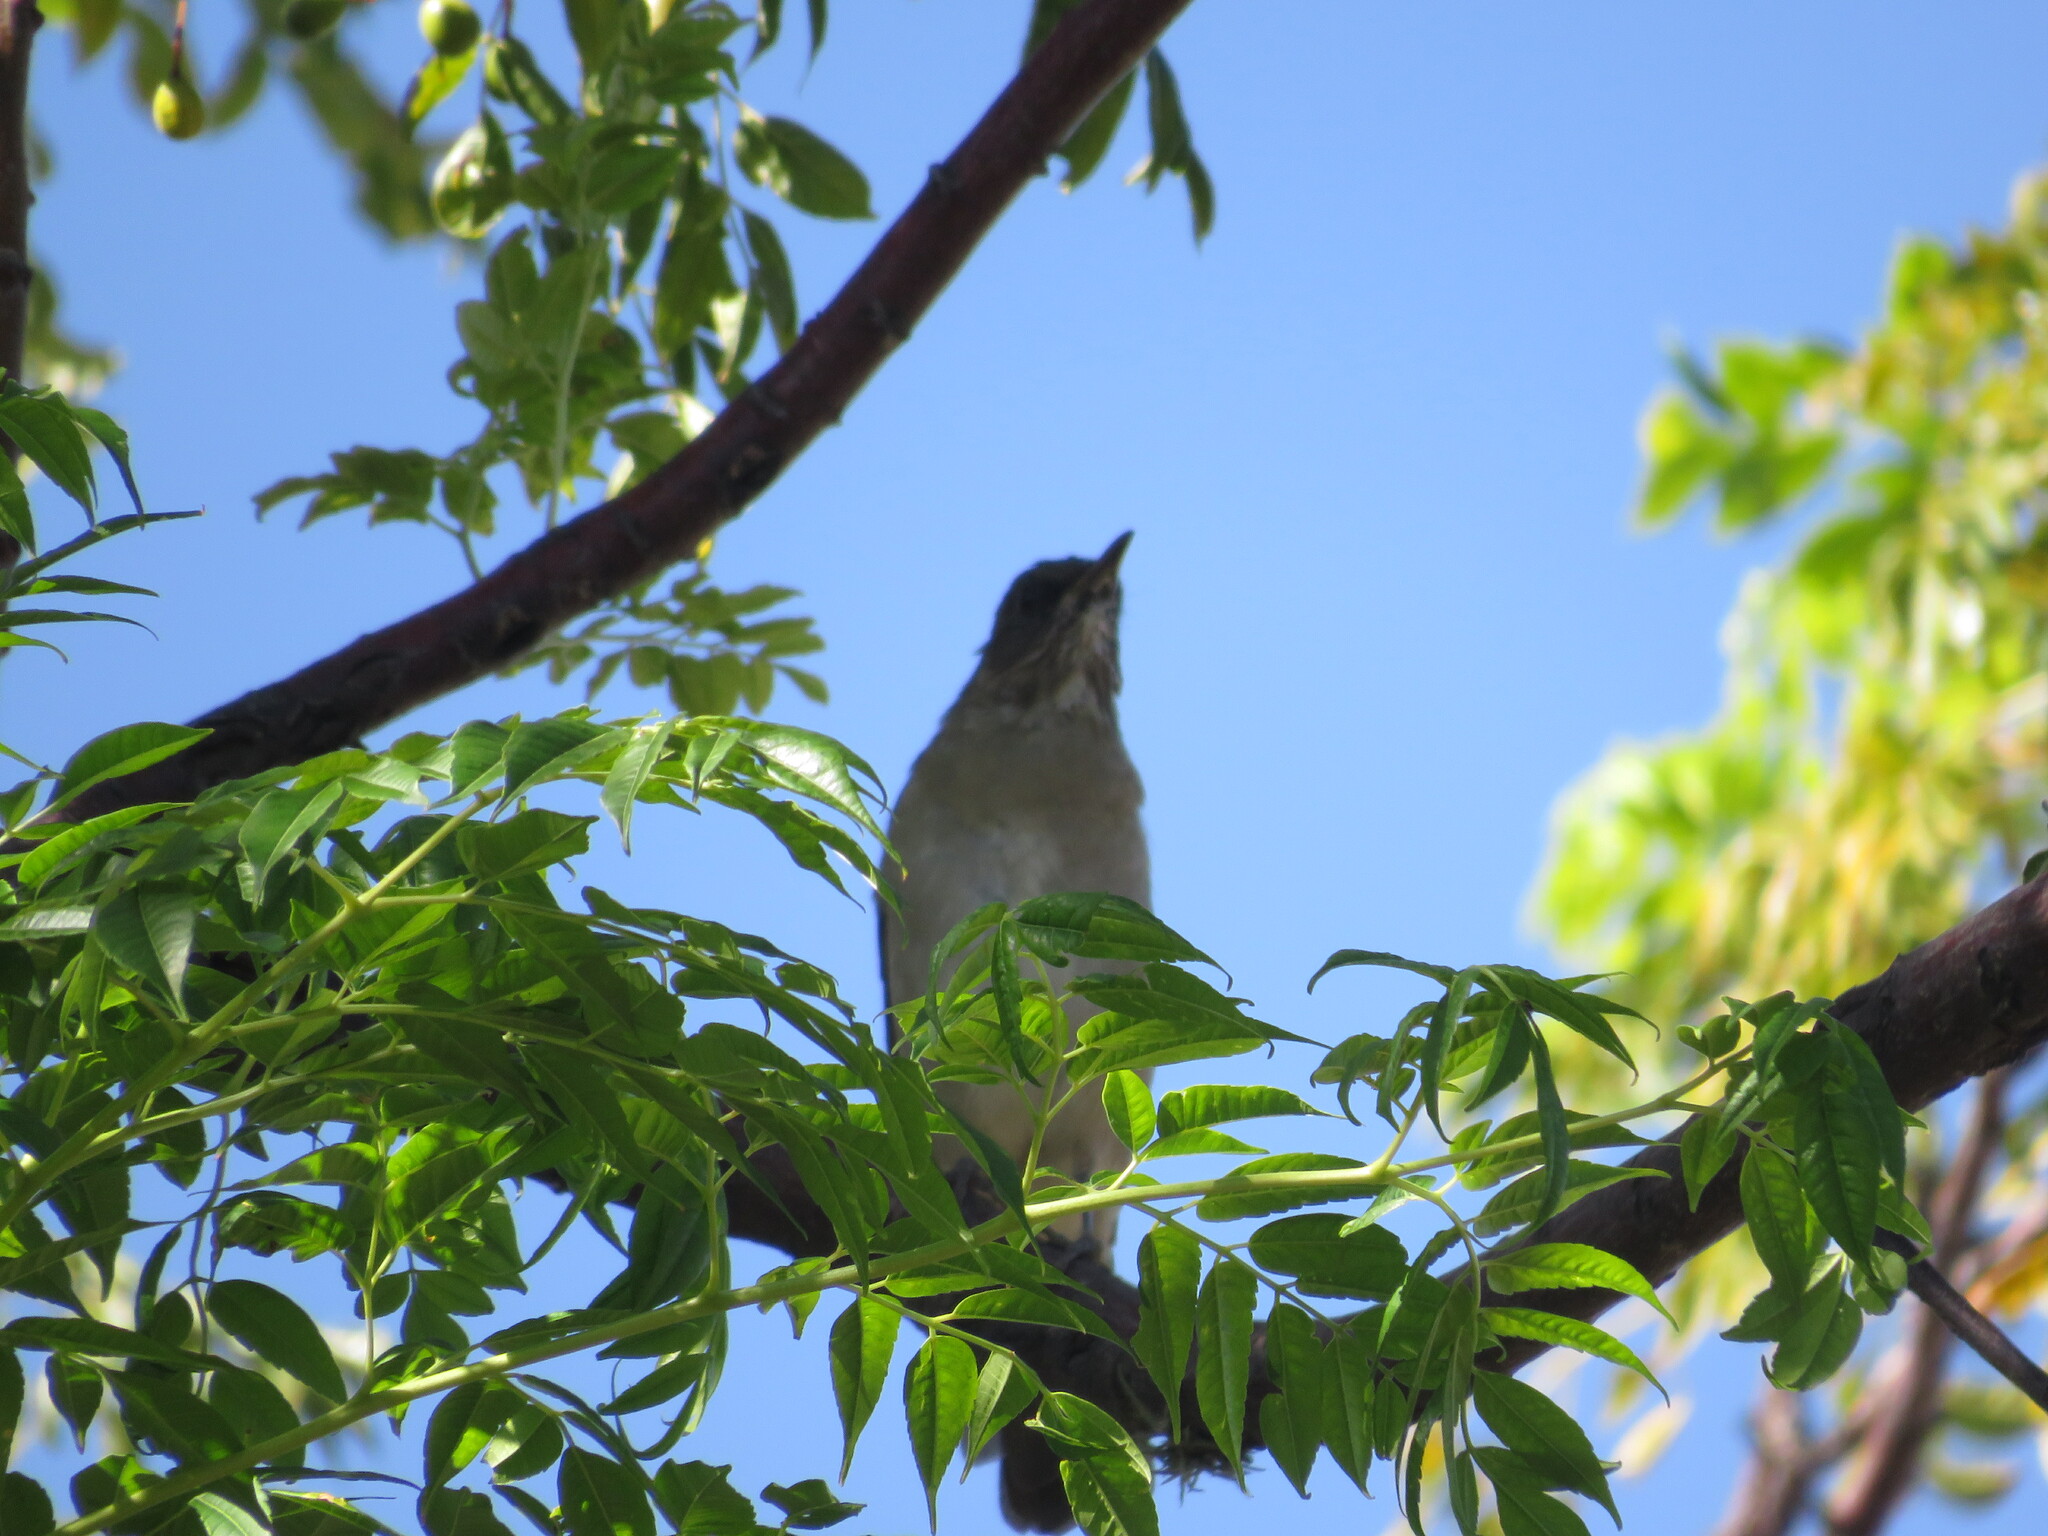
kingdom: Animalia
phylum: Chordata
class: Aves
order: Passeriformes
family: Turdidae
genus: Turdus
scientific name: Turdus amaurochalinus
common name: Creamy-bellied thrush
